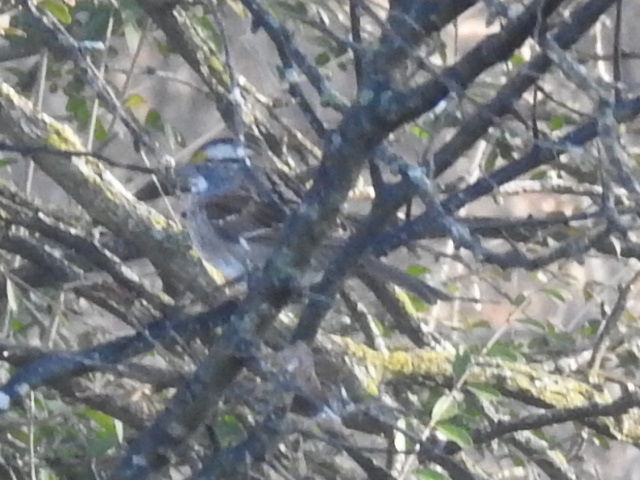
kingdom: Animalia
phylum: Chordata
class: Aves
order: Passeriformes
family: Passerellidae
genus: Zonotrichia
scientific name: Zonotrichia albicollis
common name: White-throated sparrow
